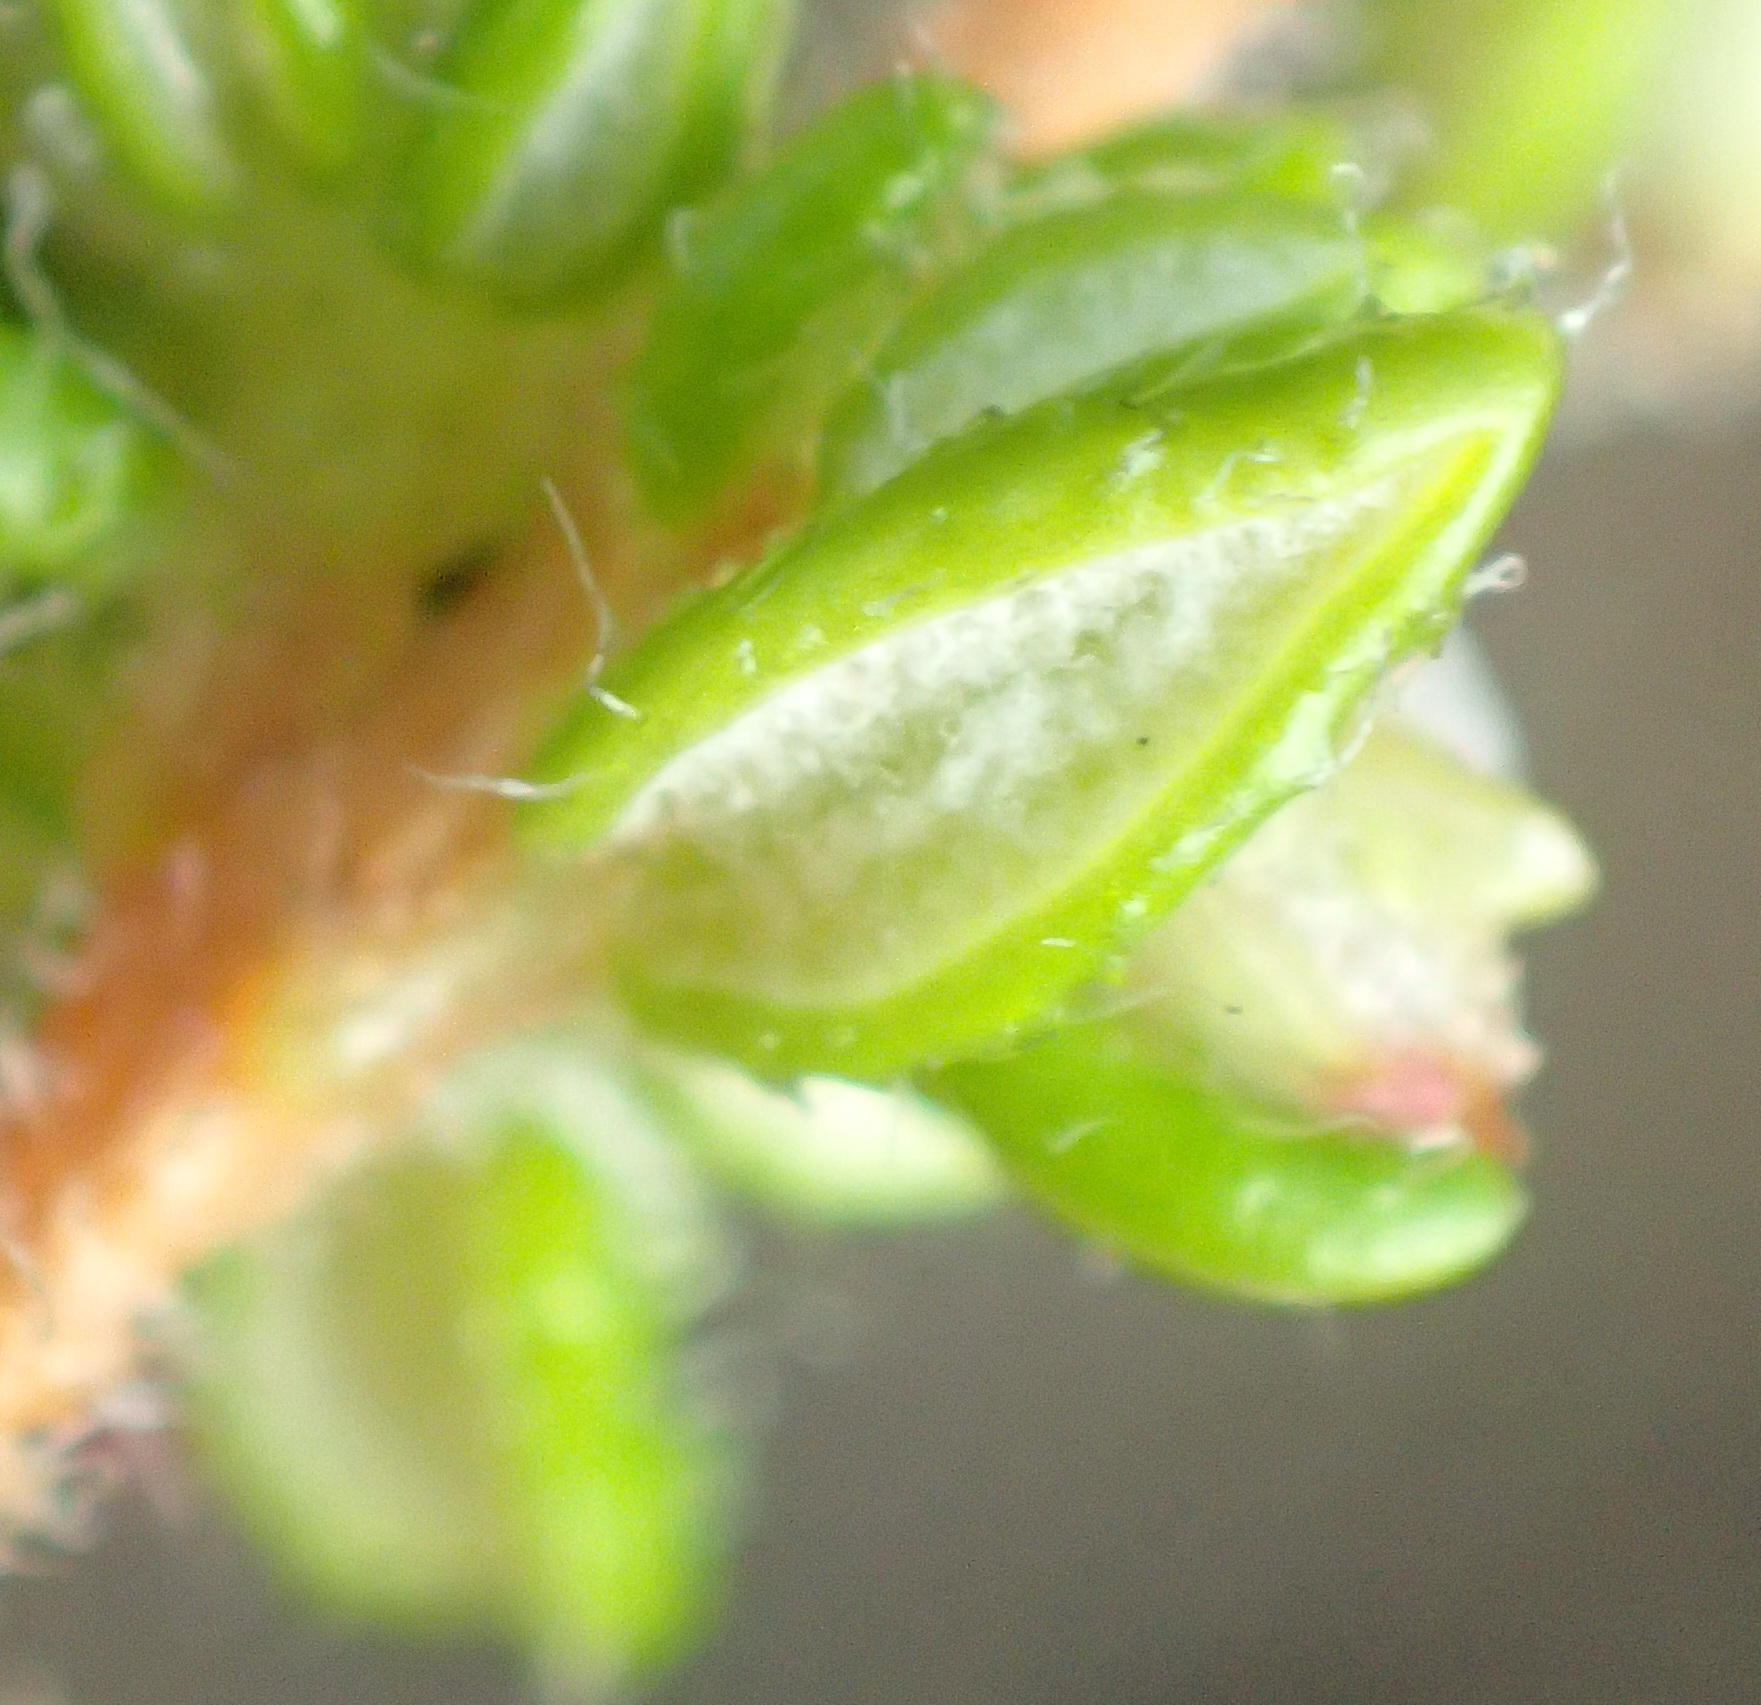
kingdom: Plantae
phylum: Tracheophyta
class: Magnoliopsida
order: Ericales
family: Ericaceae
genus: Erica
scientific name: Erica cordata
